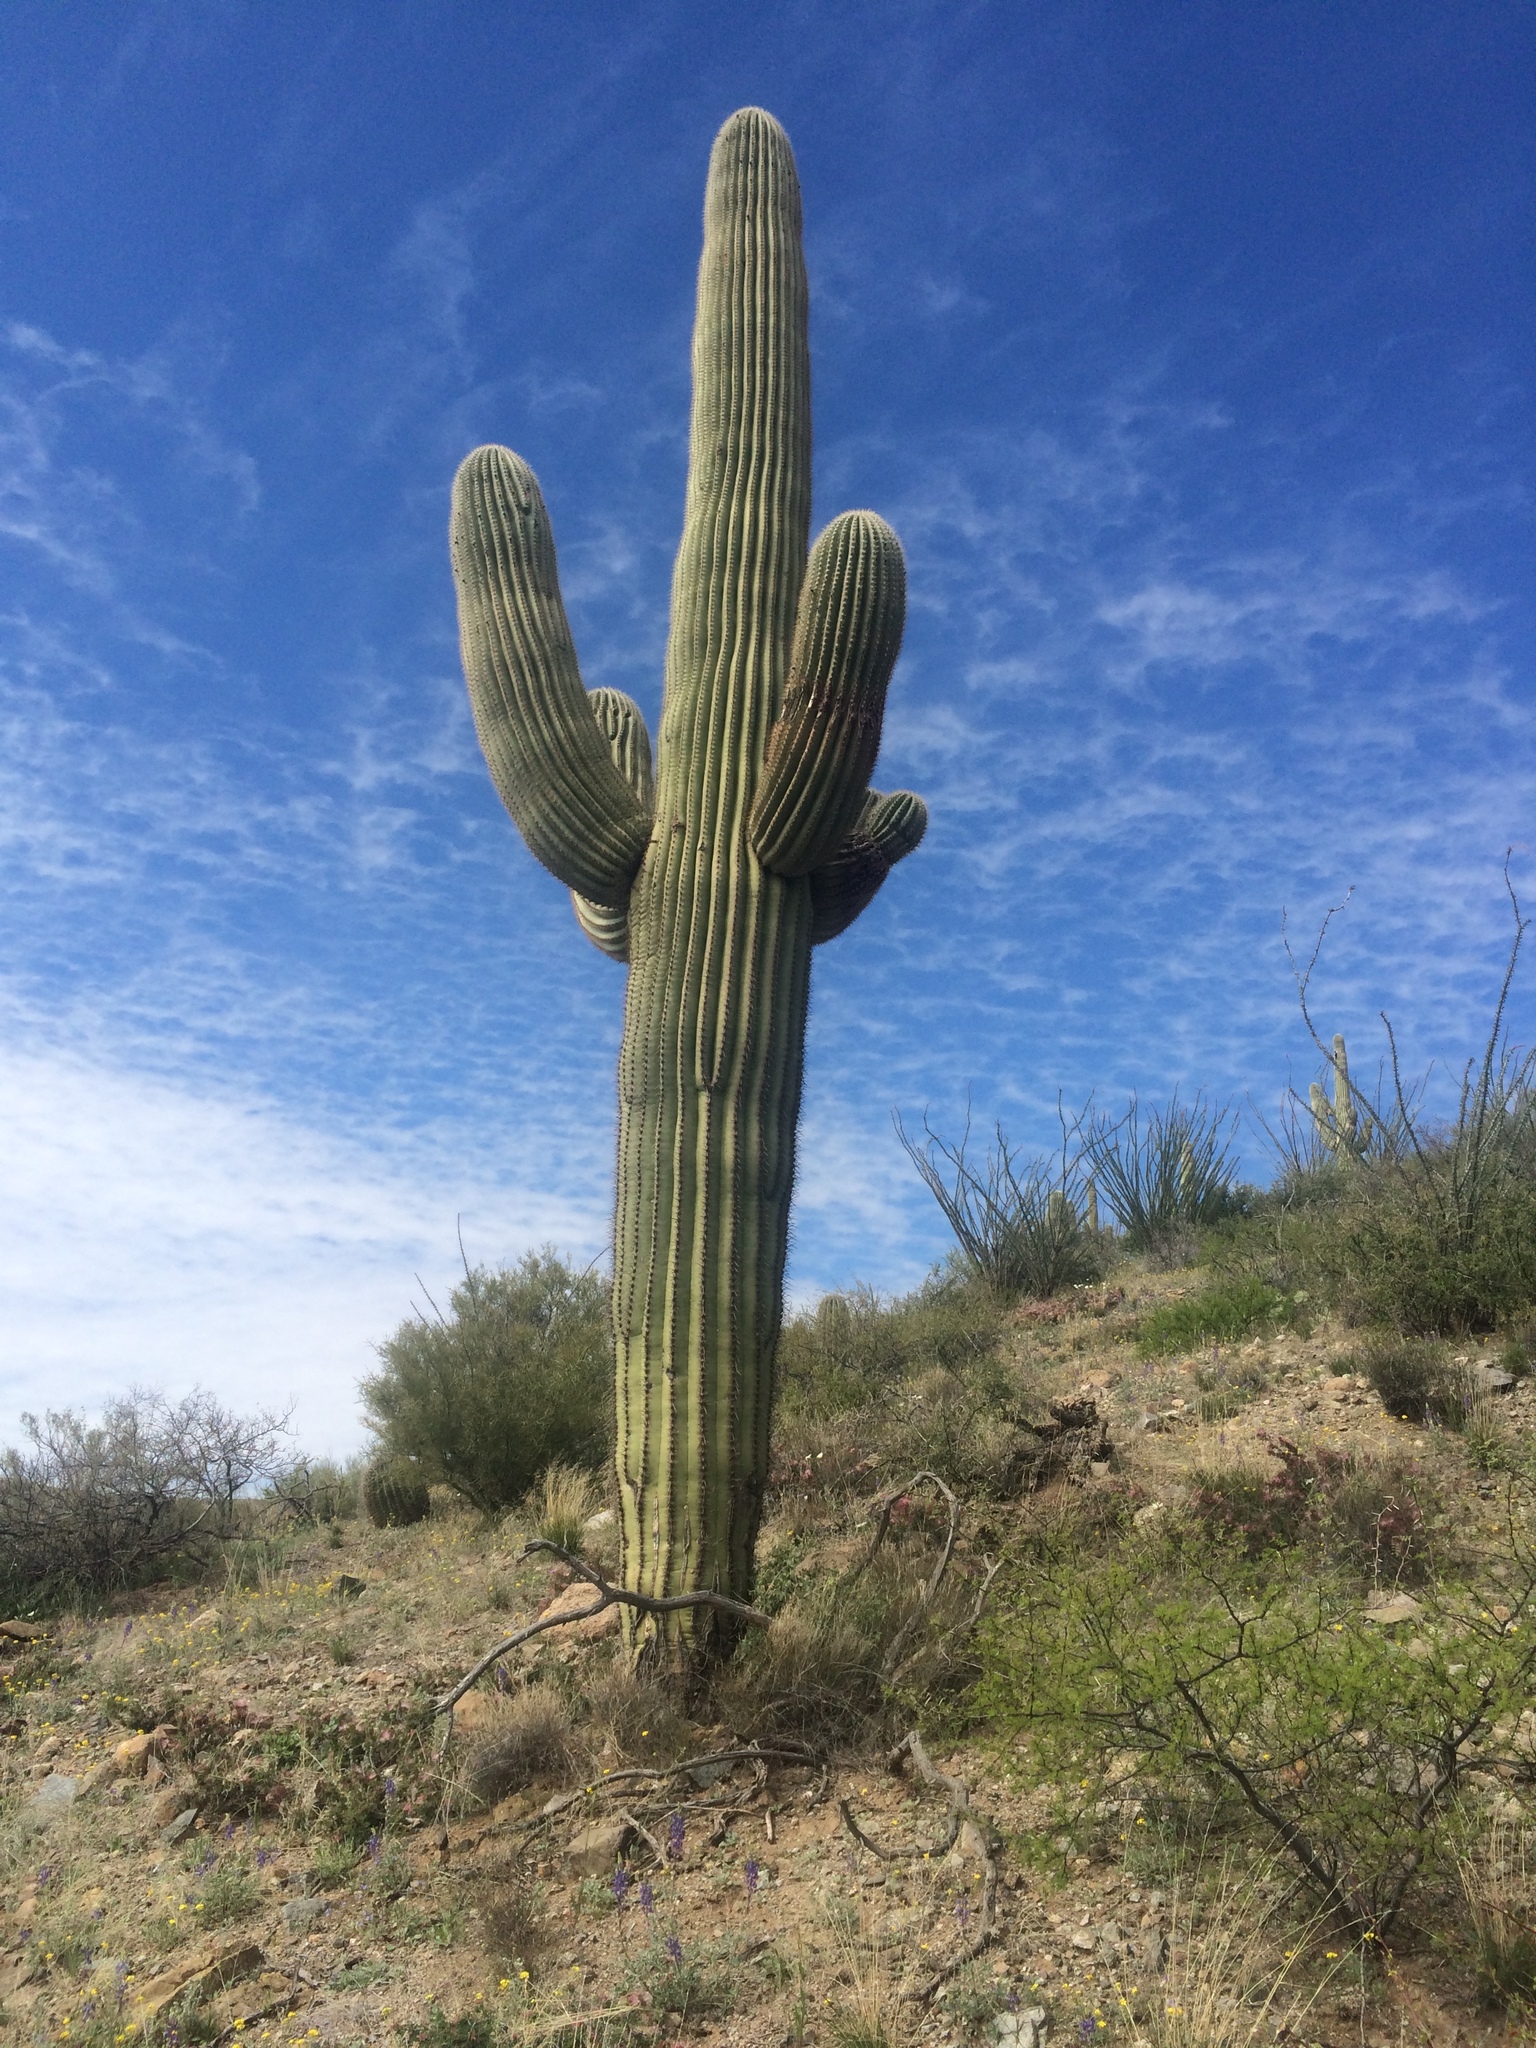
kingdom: Plantae
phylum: Tracheophyta
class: Magnoliopsida
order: Caryophyllales
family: Cactaceae
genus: Carnegiea
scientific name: Carnegiea gigantea
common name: Saguaro
